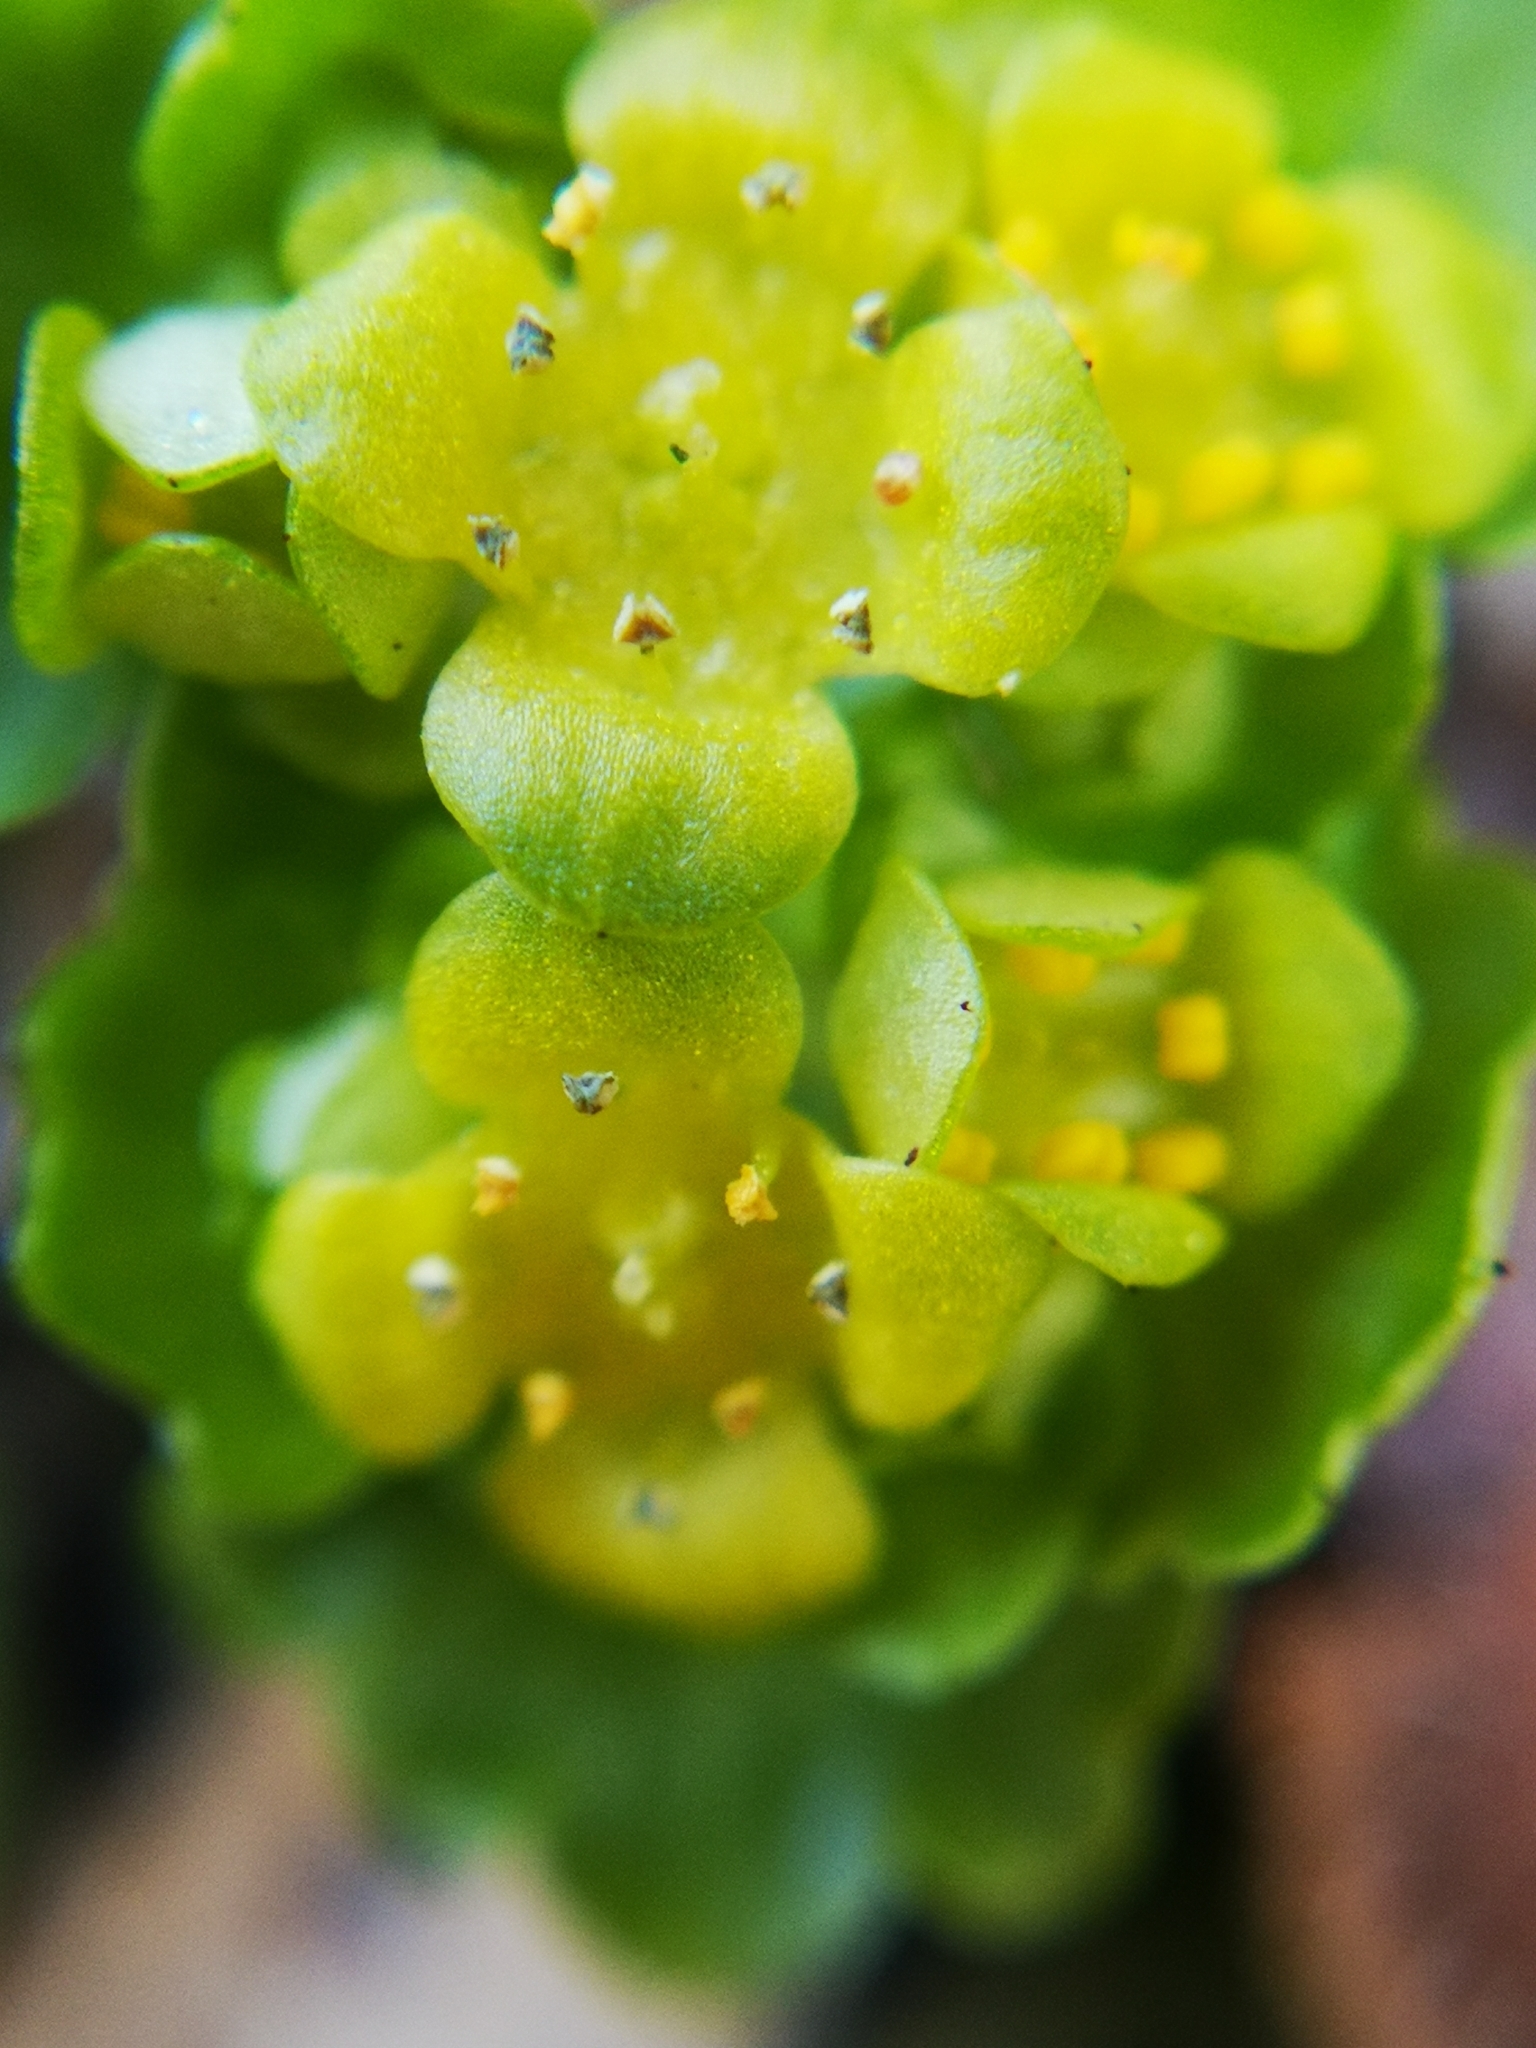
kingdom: Plantae
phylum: Tracheophyta
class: Magnoliopsida
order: Saxifragales
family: Saxifragaceae
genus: Chrysosplenium
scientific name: Chrysosplenium alternifolium
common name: Alternate-leaved golden-saxifrage
